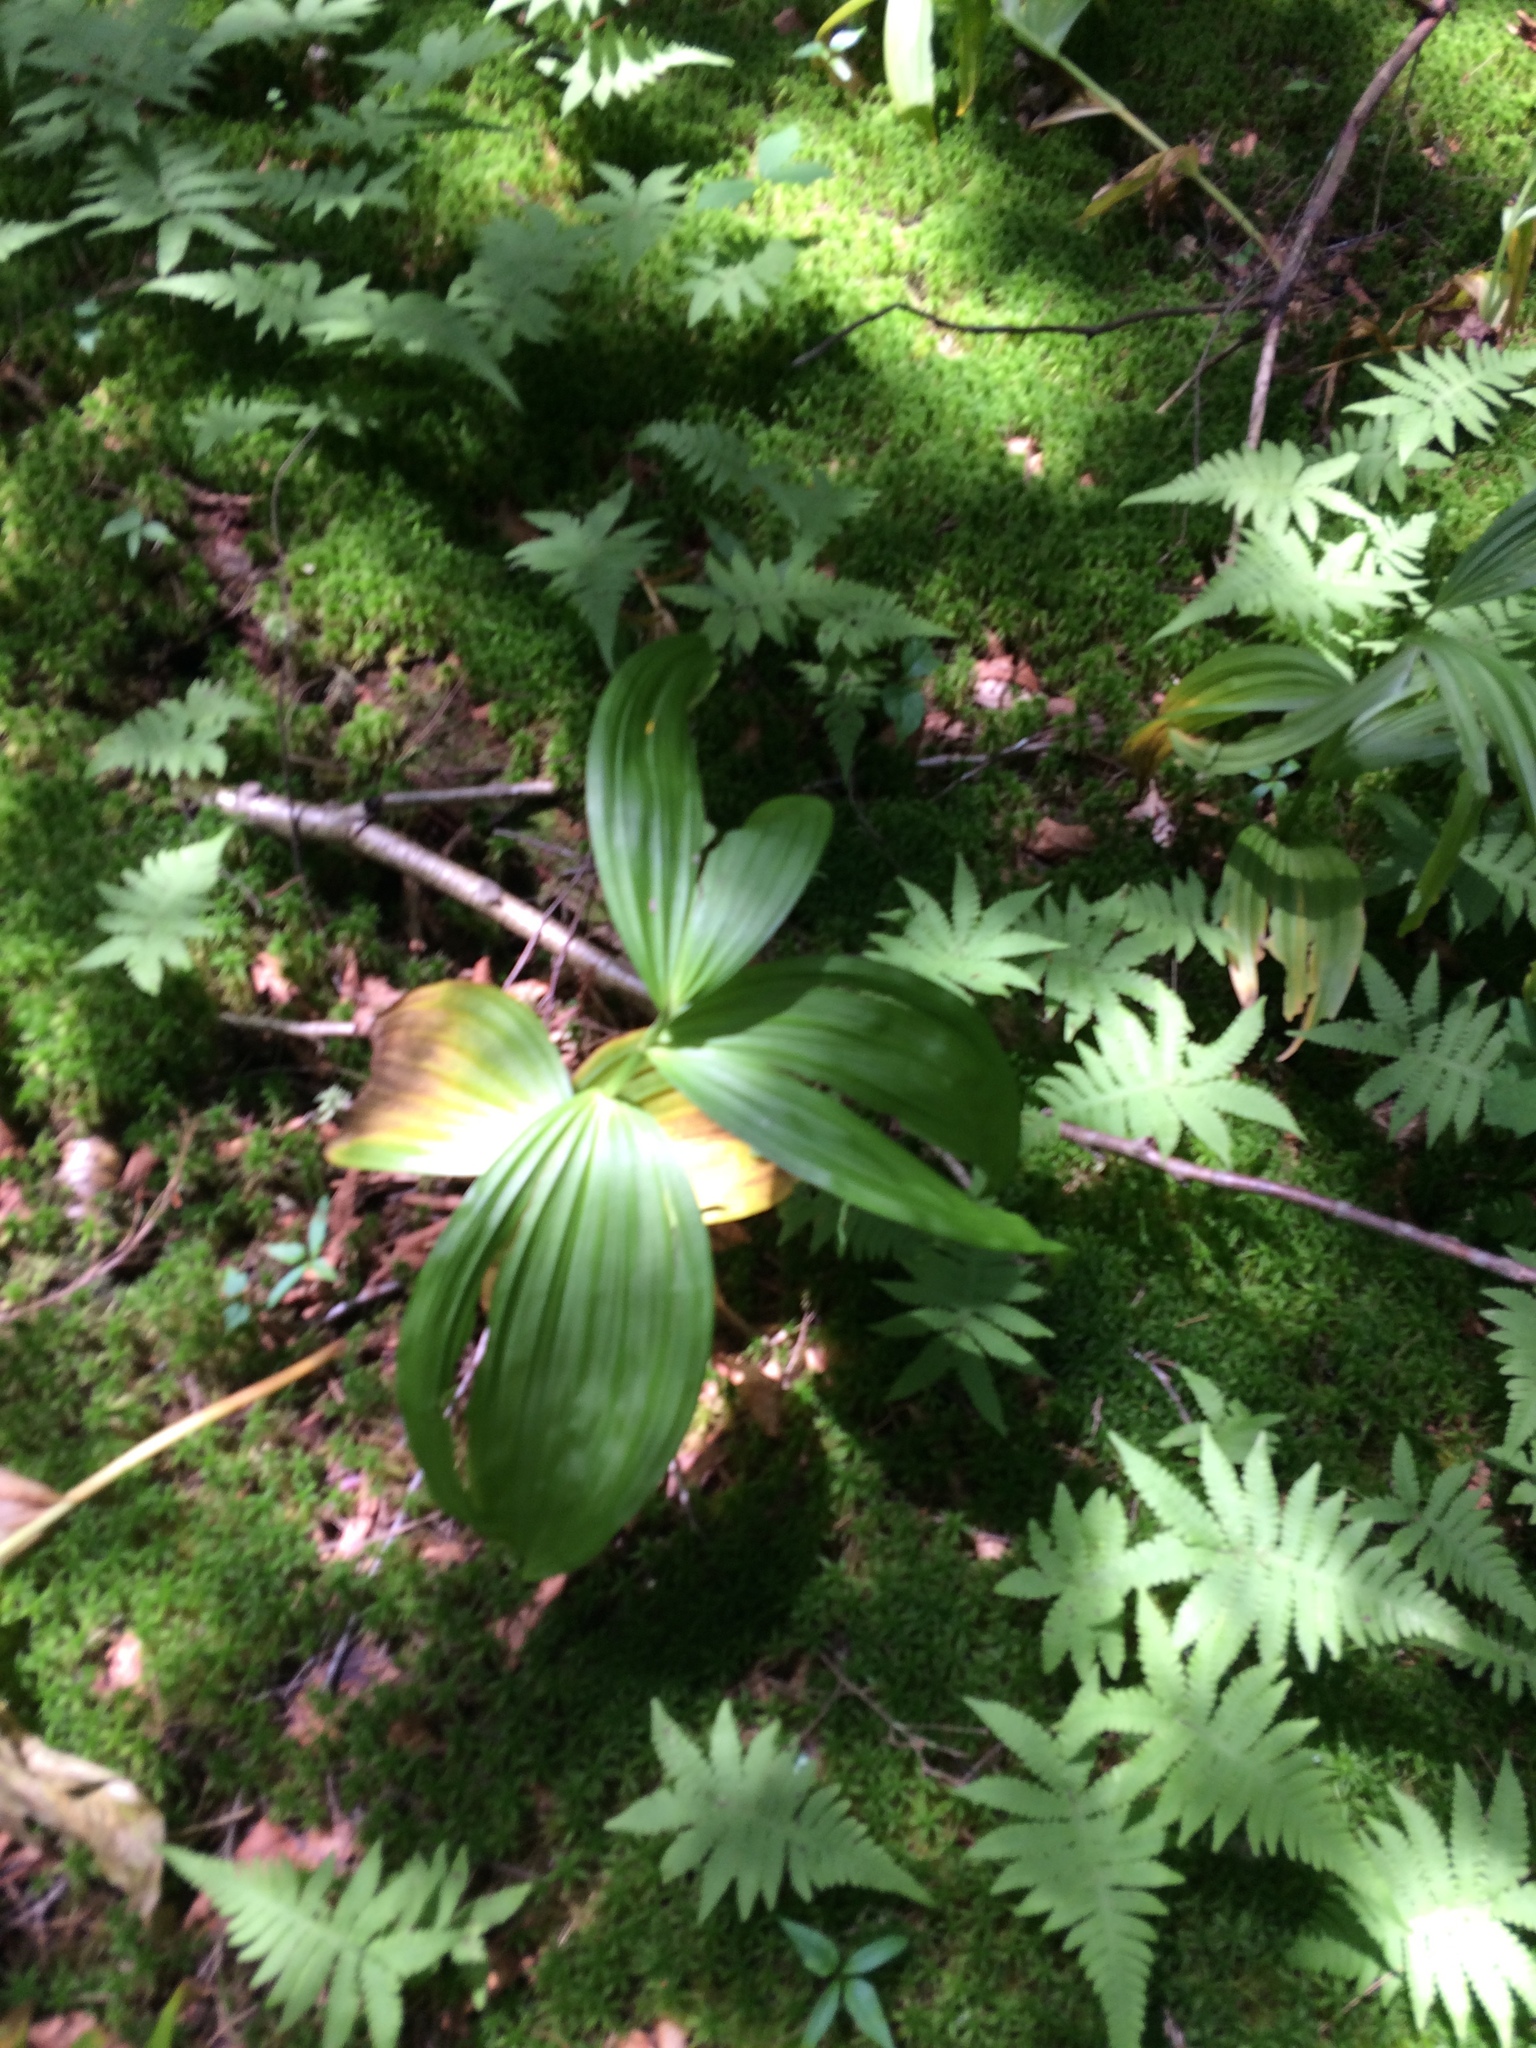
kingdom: Plantae
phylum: Tracheophyta
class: Liliopsida
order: Liliales
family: Melanthiaceae
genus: Veratrum
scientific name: Veratrum viride
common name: American false hellebore
